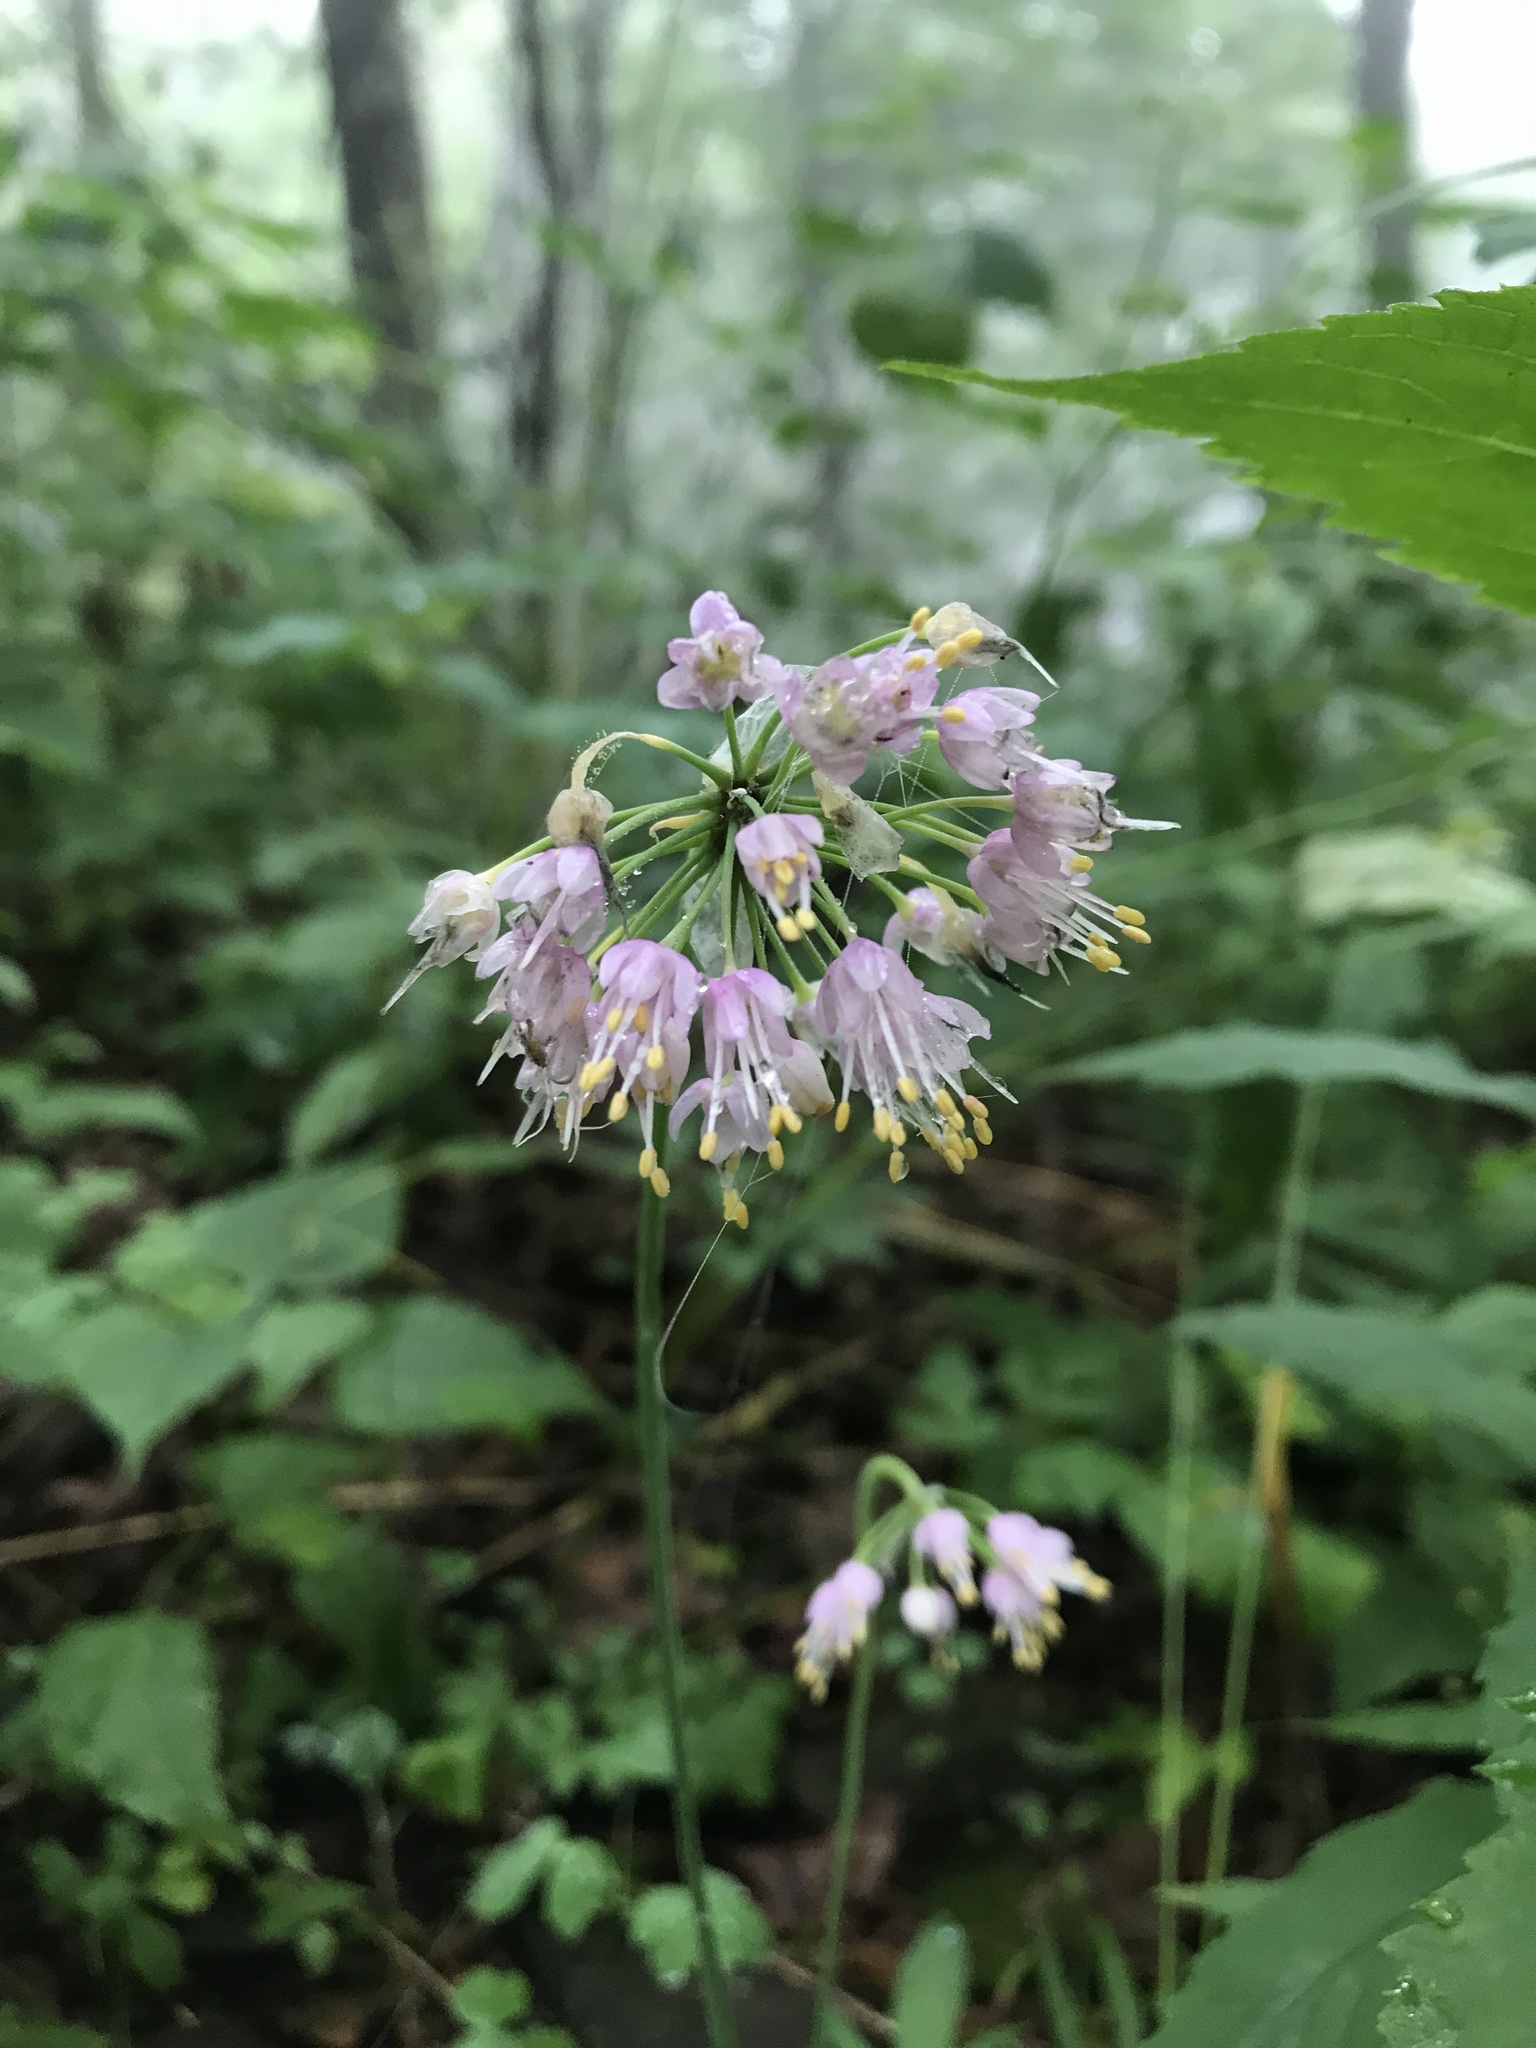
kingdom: Plantae
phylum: Tracheophyta
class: Liliopsida
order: Asparagales
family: Amaryllidaceae
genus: Allium
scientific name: Allium cernuum
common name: Nodding onion
